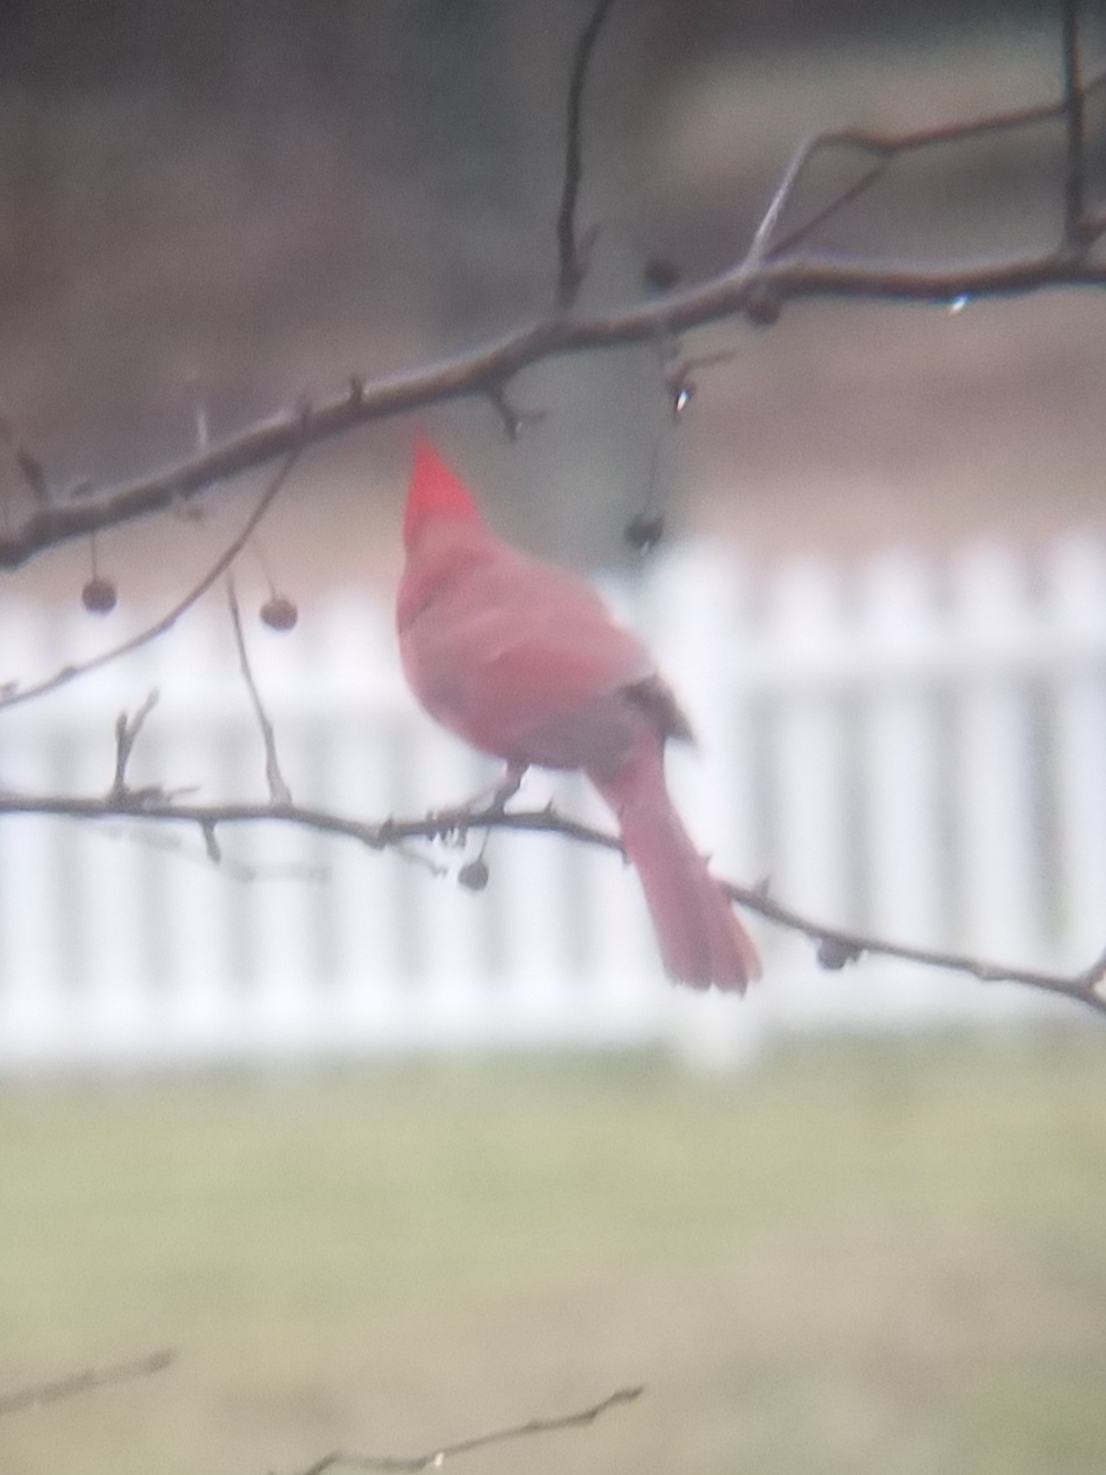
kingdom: Animalia
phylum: Chordata
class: Aves
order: Passeriformes
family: Cardinalidae
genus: Cardinalis
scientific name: Cardinalis cardinalis
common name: Northern cardinal
